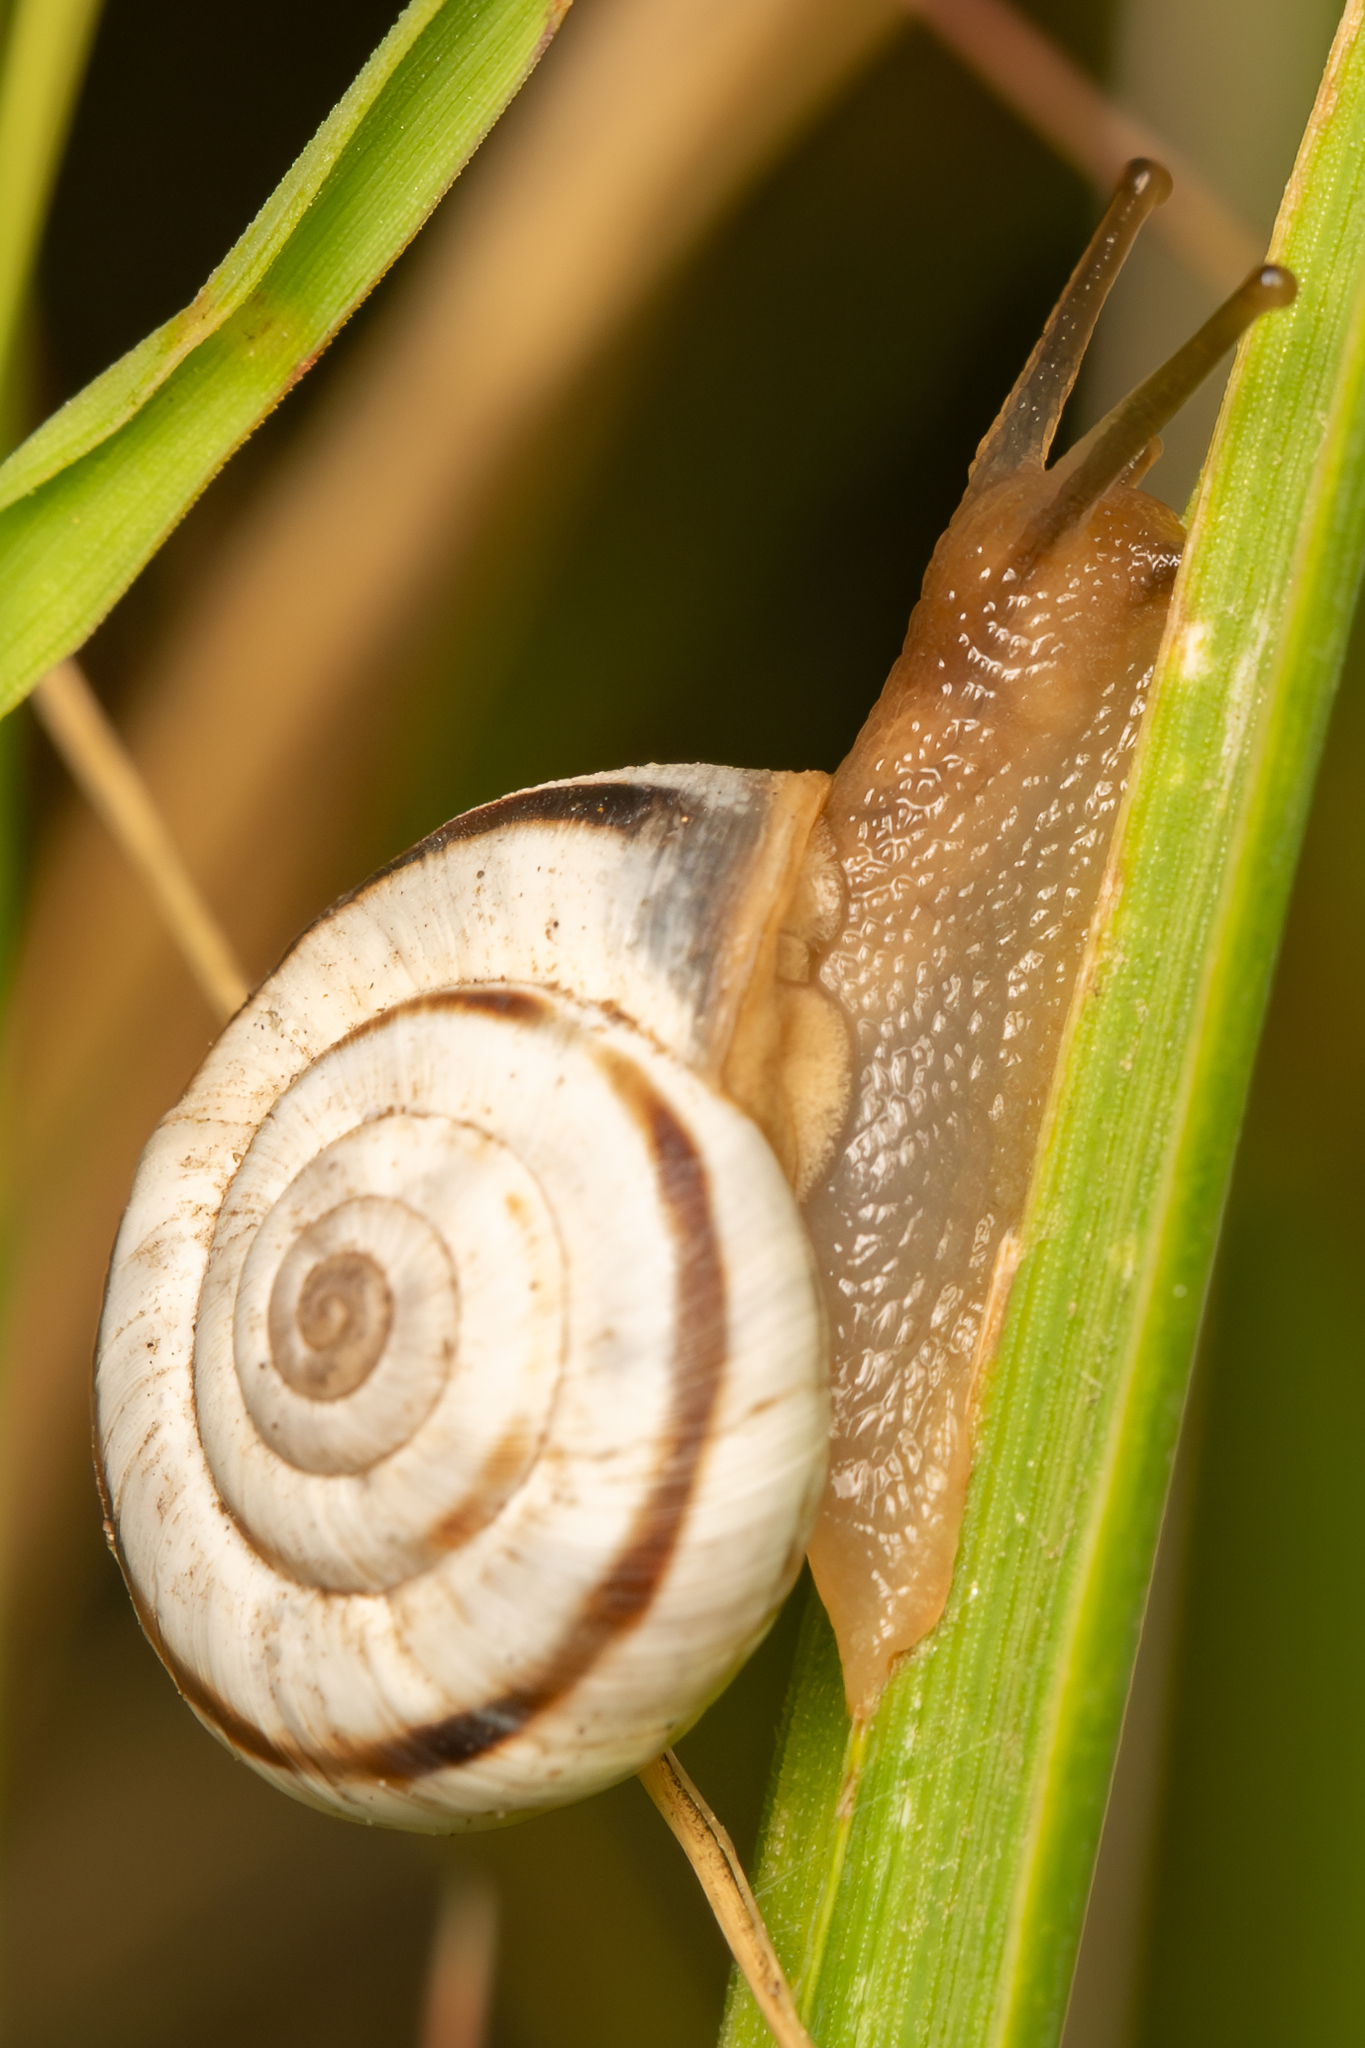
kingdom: Animalia
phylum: Mollusca
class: Gastropoda
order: Stylommatophora
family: Geomitridae
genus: Xerolenta
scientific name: Xerolenta obvia
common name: White heath snail
